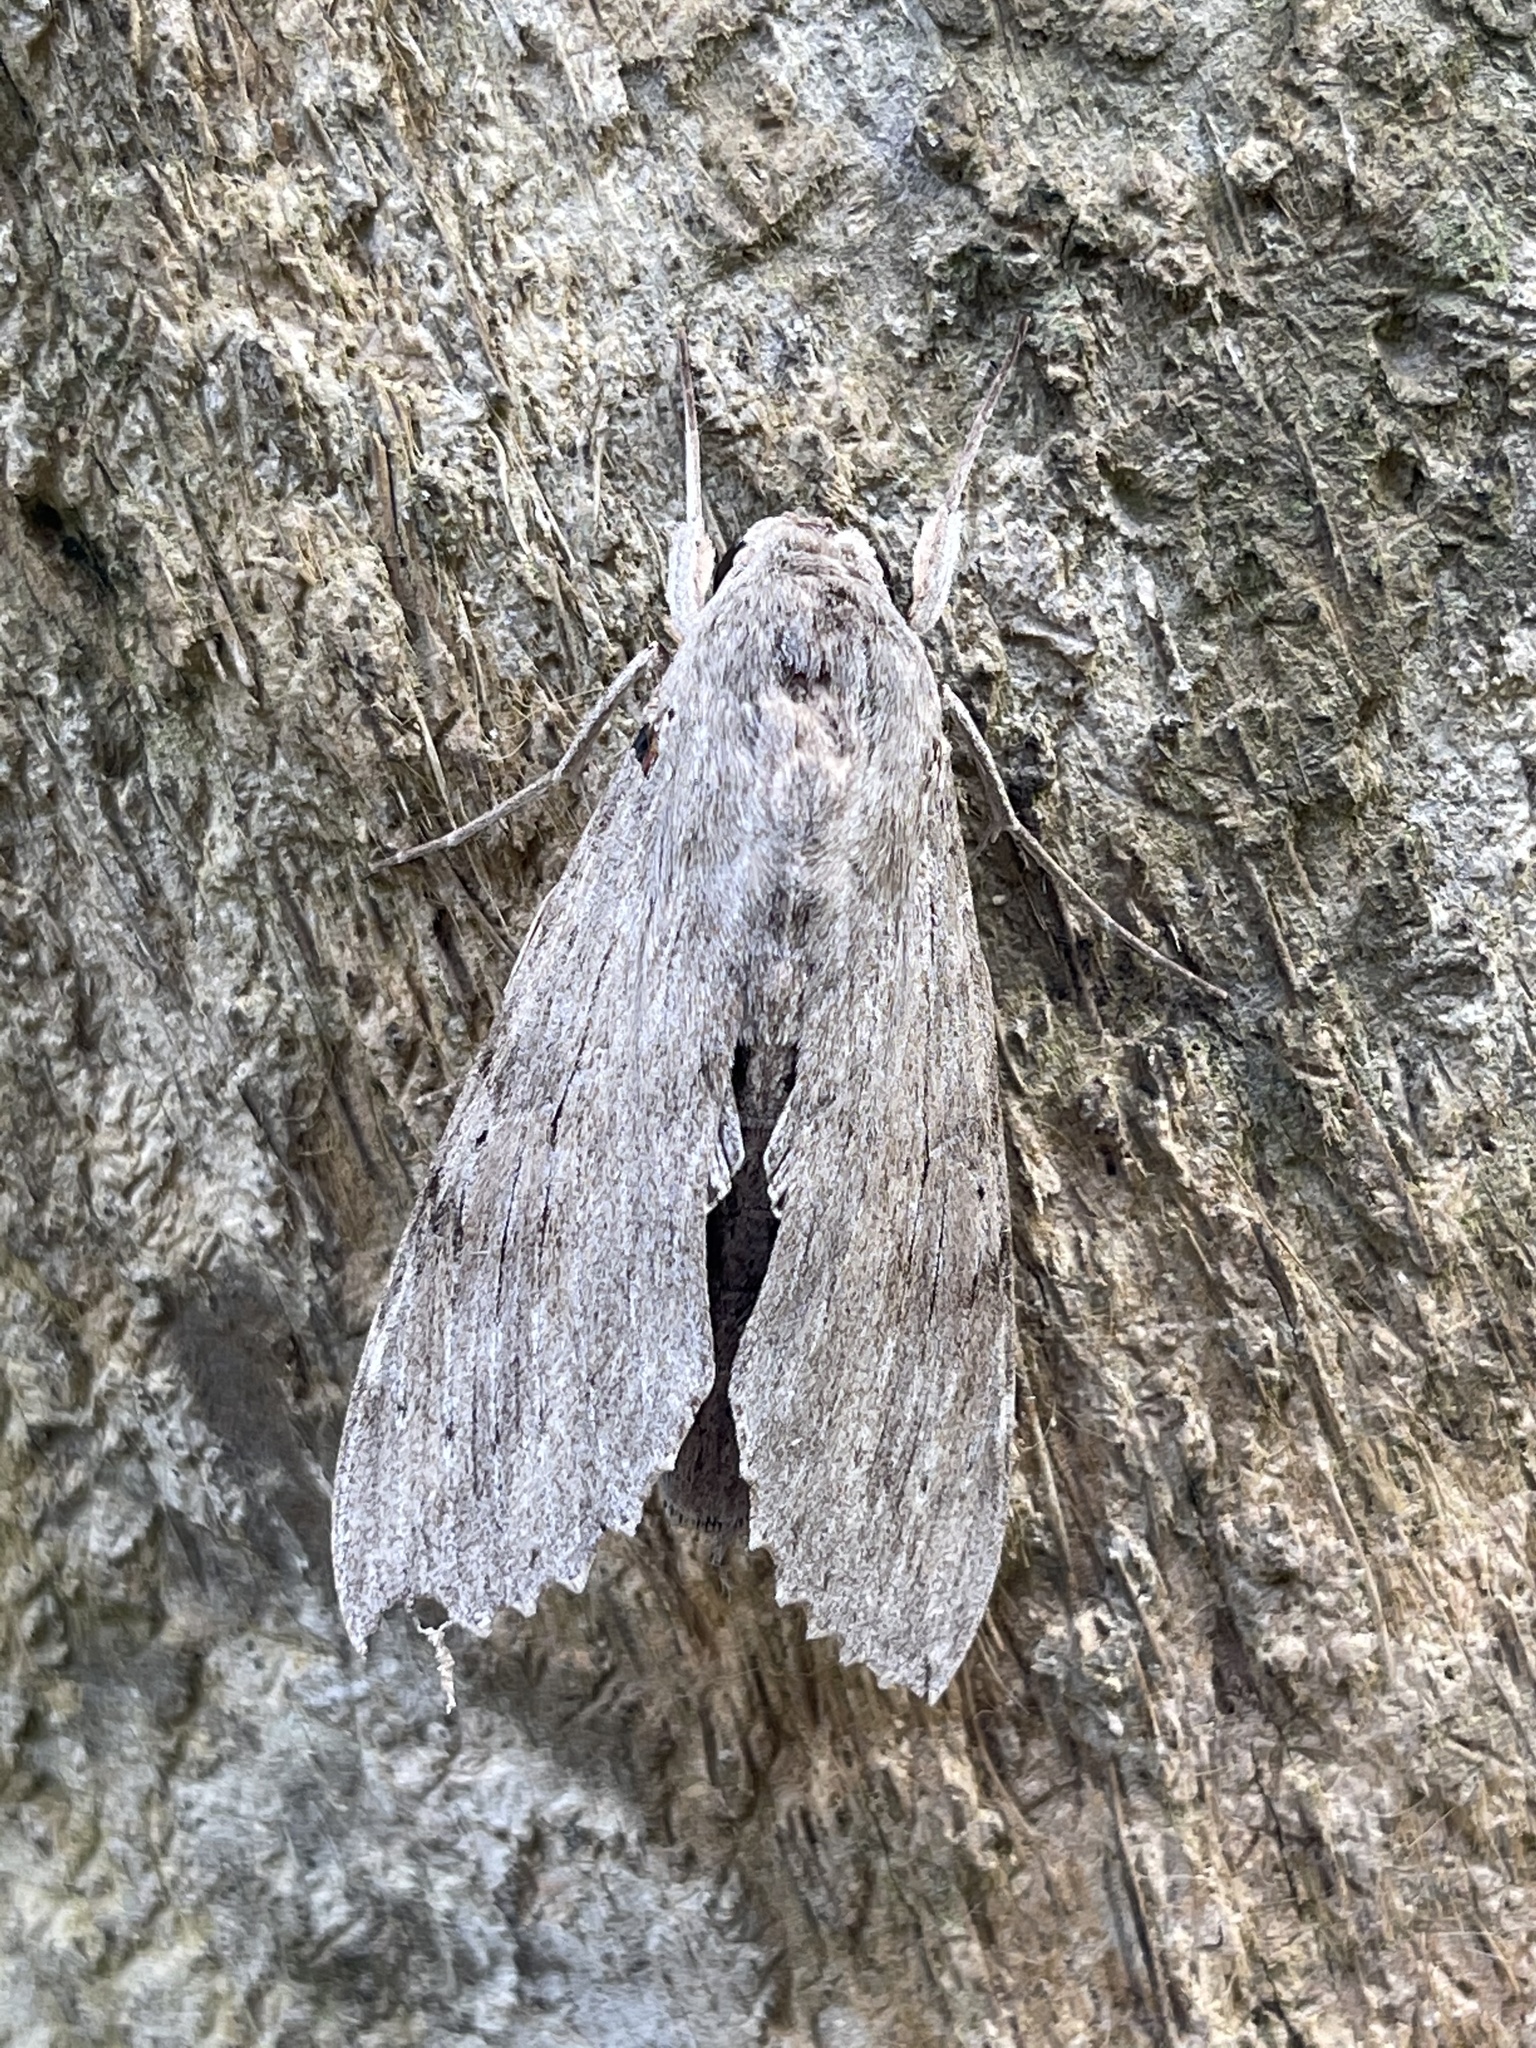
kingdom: Animalia
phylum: Arthropoda
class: Insecta
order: Lepidoptera
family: Sphingidae
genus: Erinnyis
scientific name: Erinnyis ello
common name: Ello sphinx
